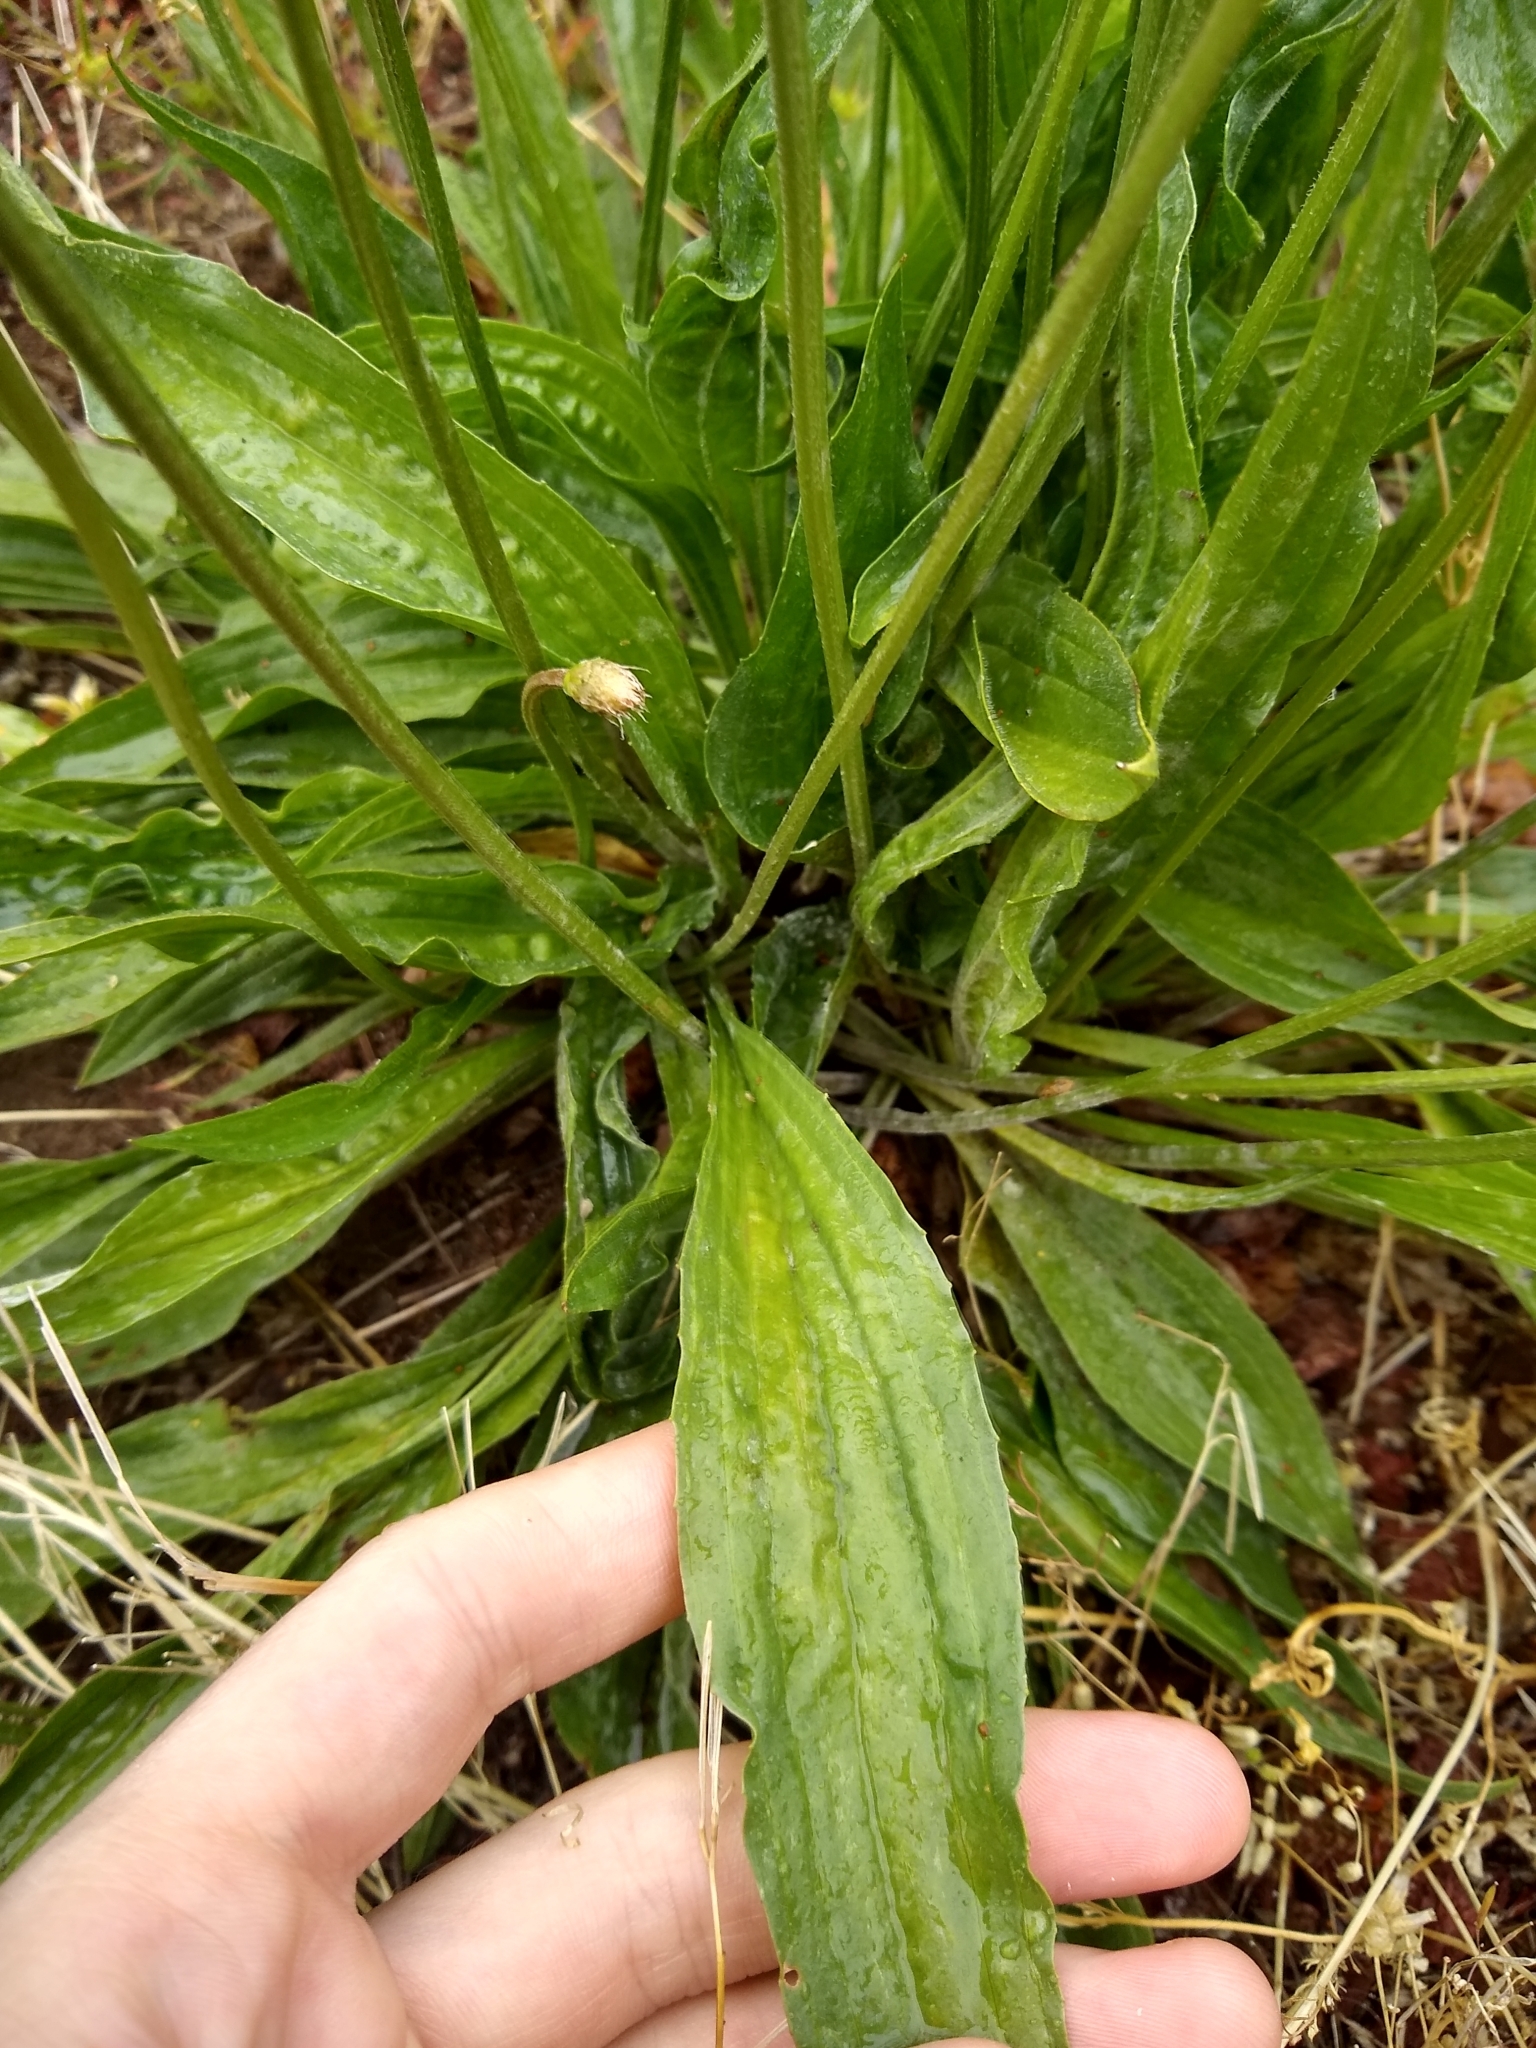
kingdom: Plantae
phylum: Tracheophyta
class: Magnoliopsida
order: Lamiales
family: Plantaginaceae
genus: Plantago
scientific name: Plantago lanceolata
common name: Ribwort plantain
